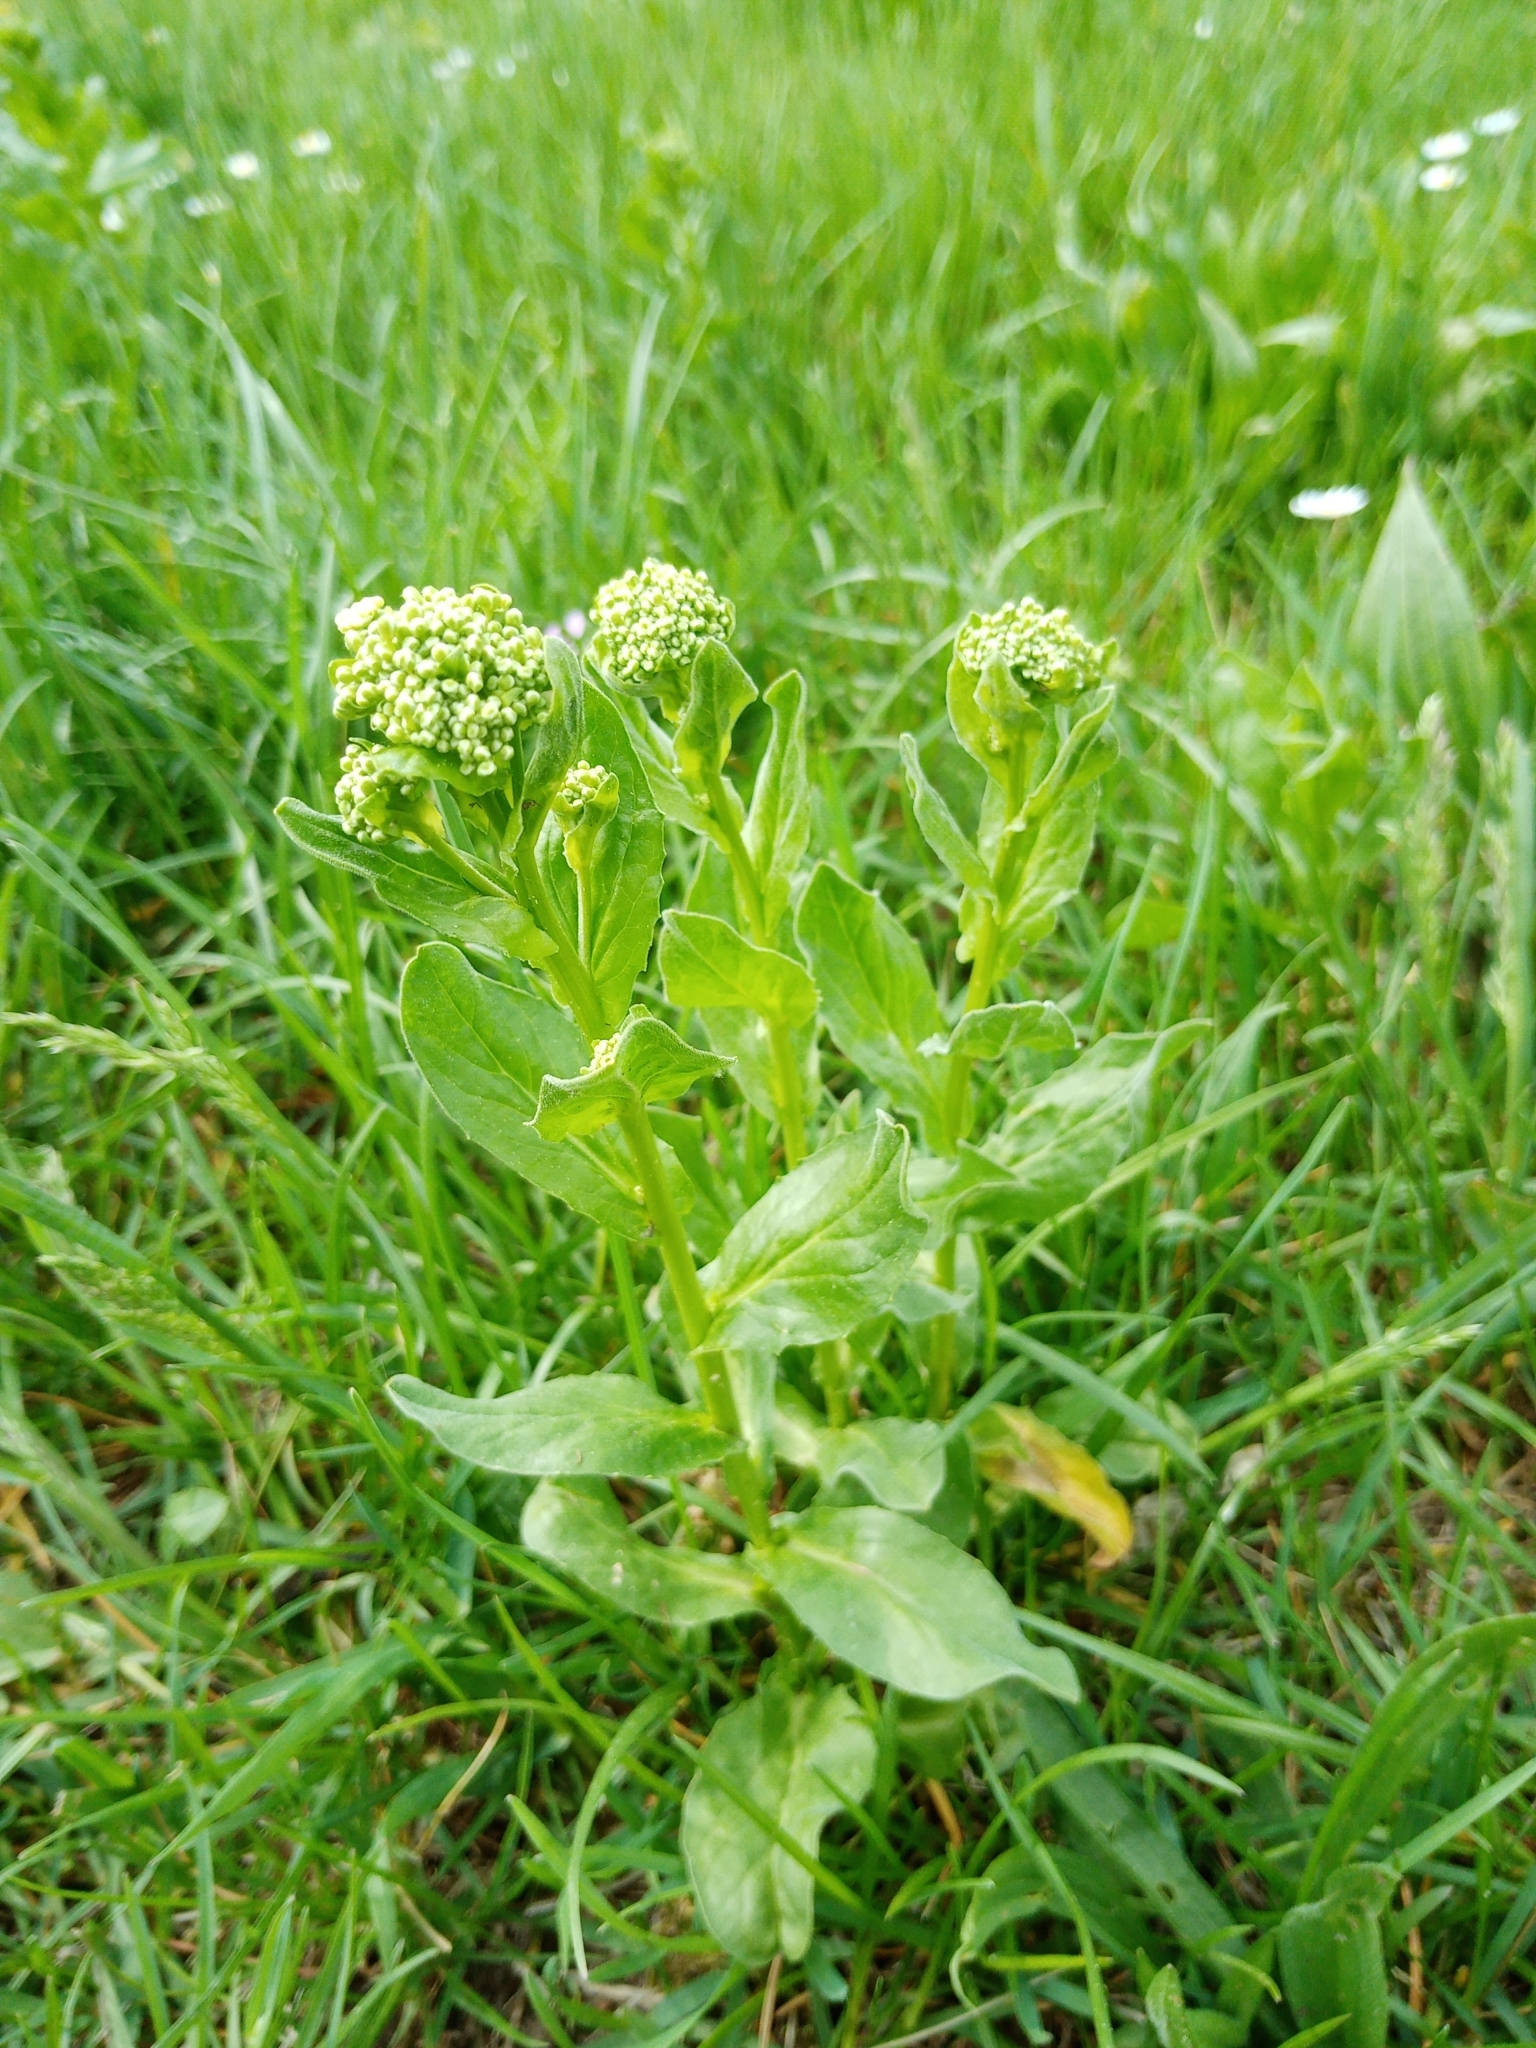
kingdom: Plantae
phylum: Tracheophyta
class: Magnoliopsida
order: Brassicales
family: Brassicaceae
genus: Lepidium
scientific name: Lepidium draba
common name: Hoary cress
